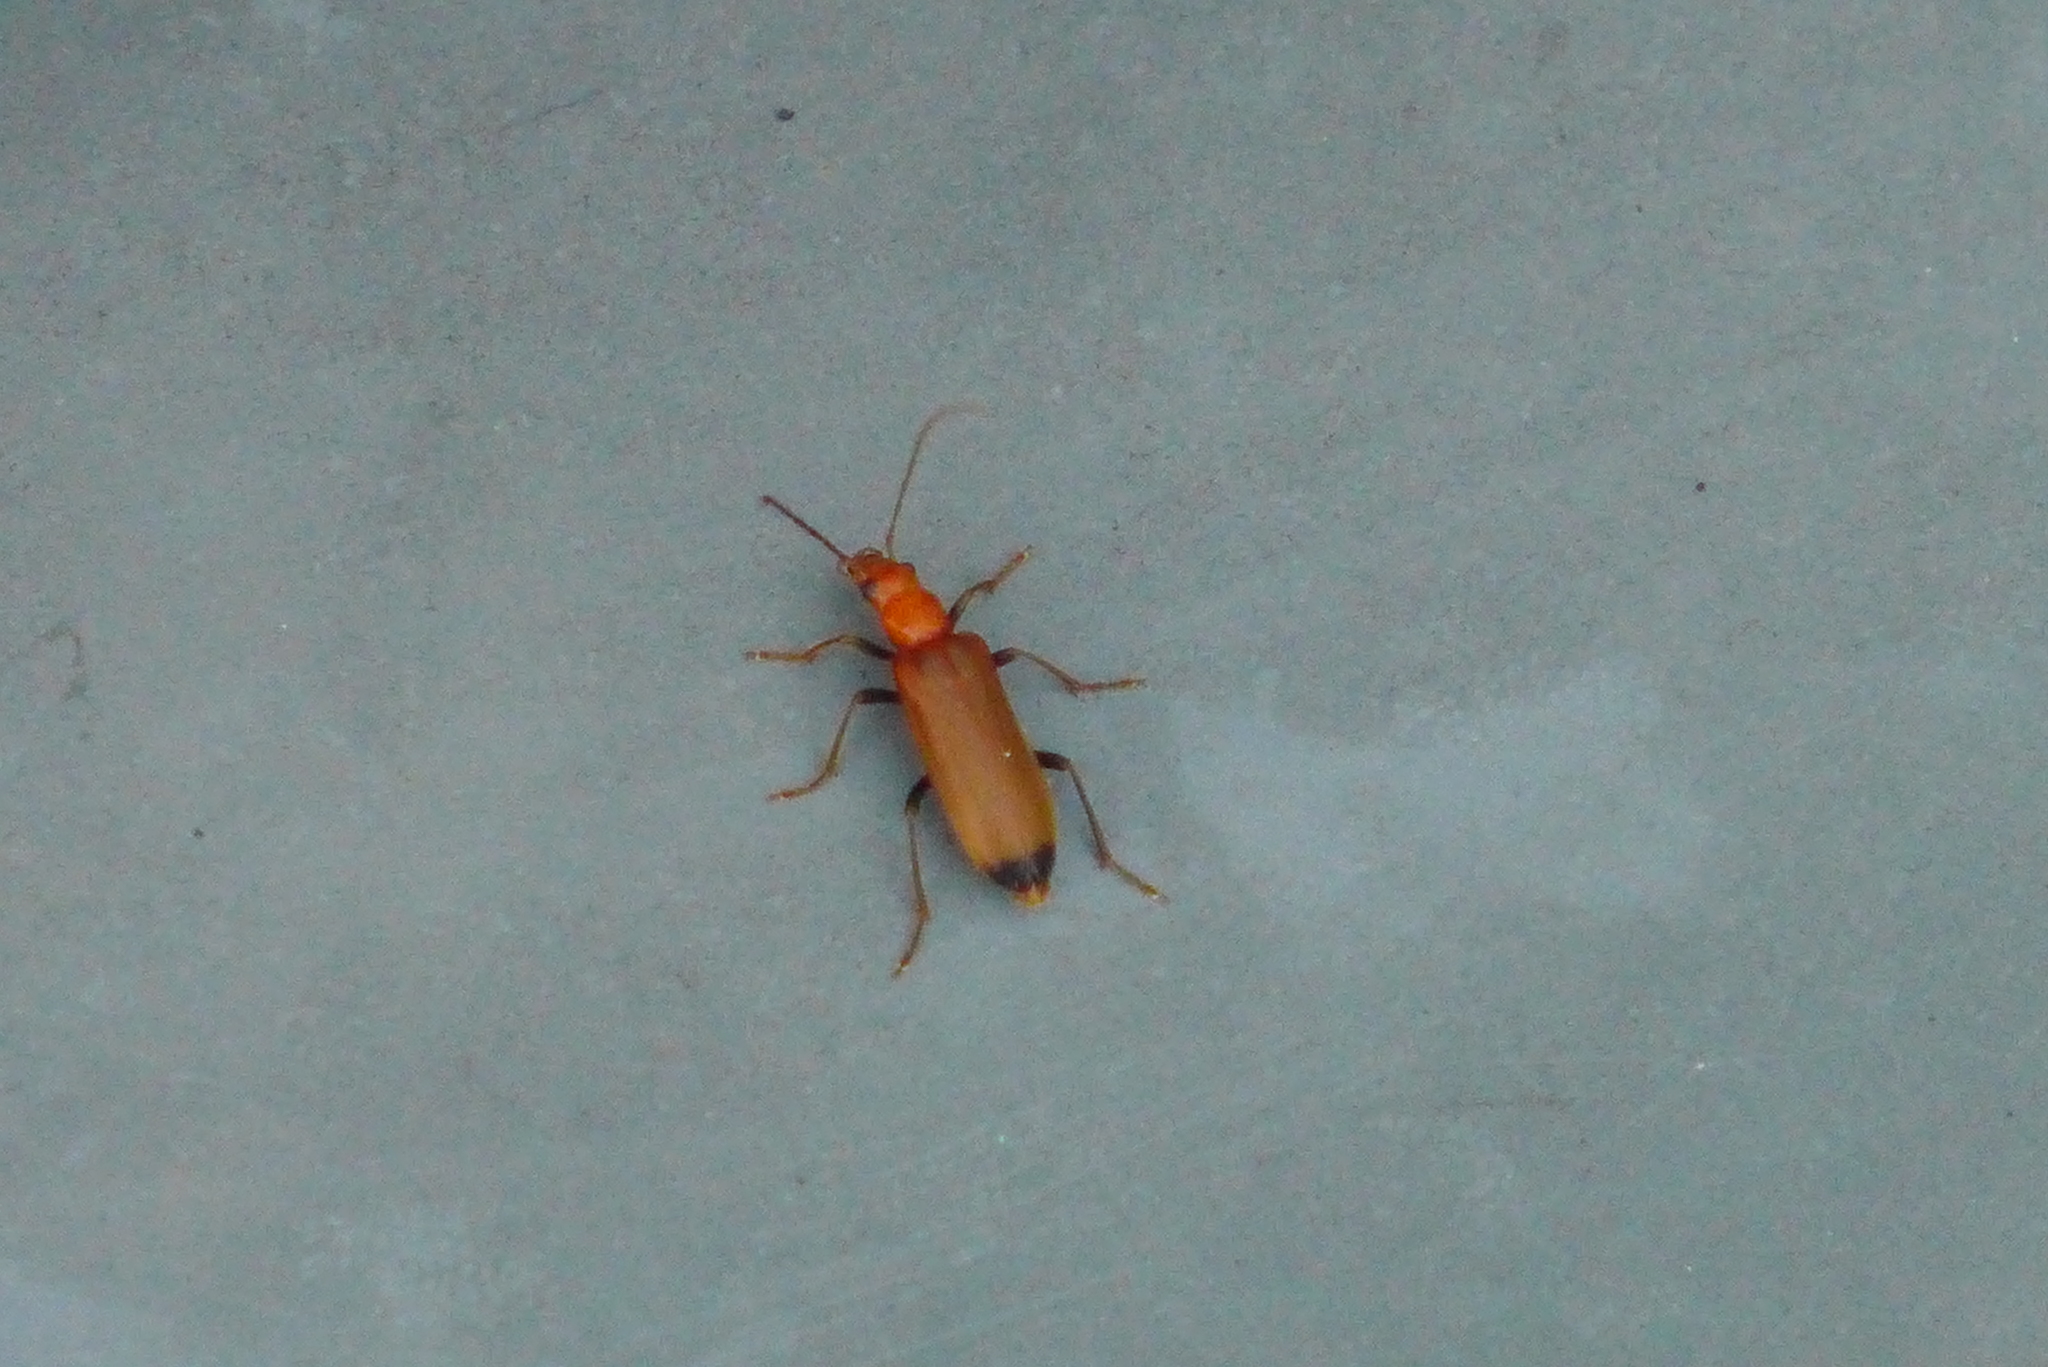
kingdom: Animalia
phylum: Arthropoda
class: Insecta
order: Coleoptera
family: Oedemeridae
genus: Nacerdes
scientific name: Nacerdes melanura
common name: Wharf borer
